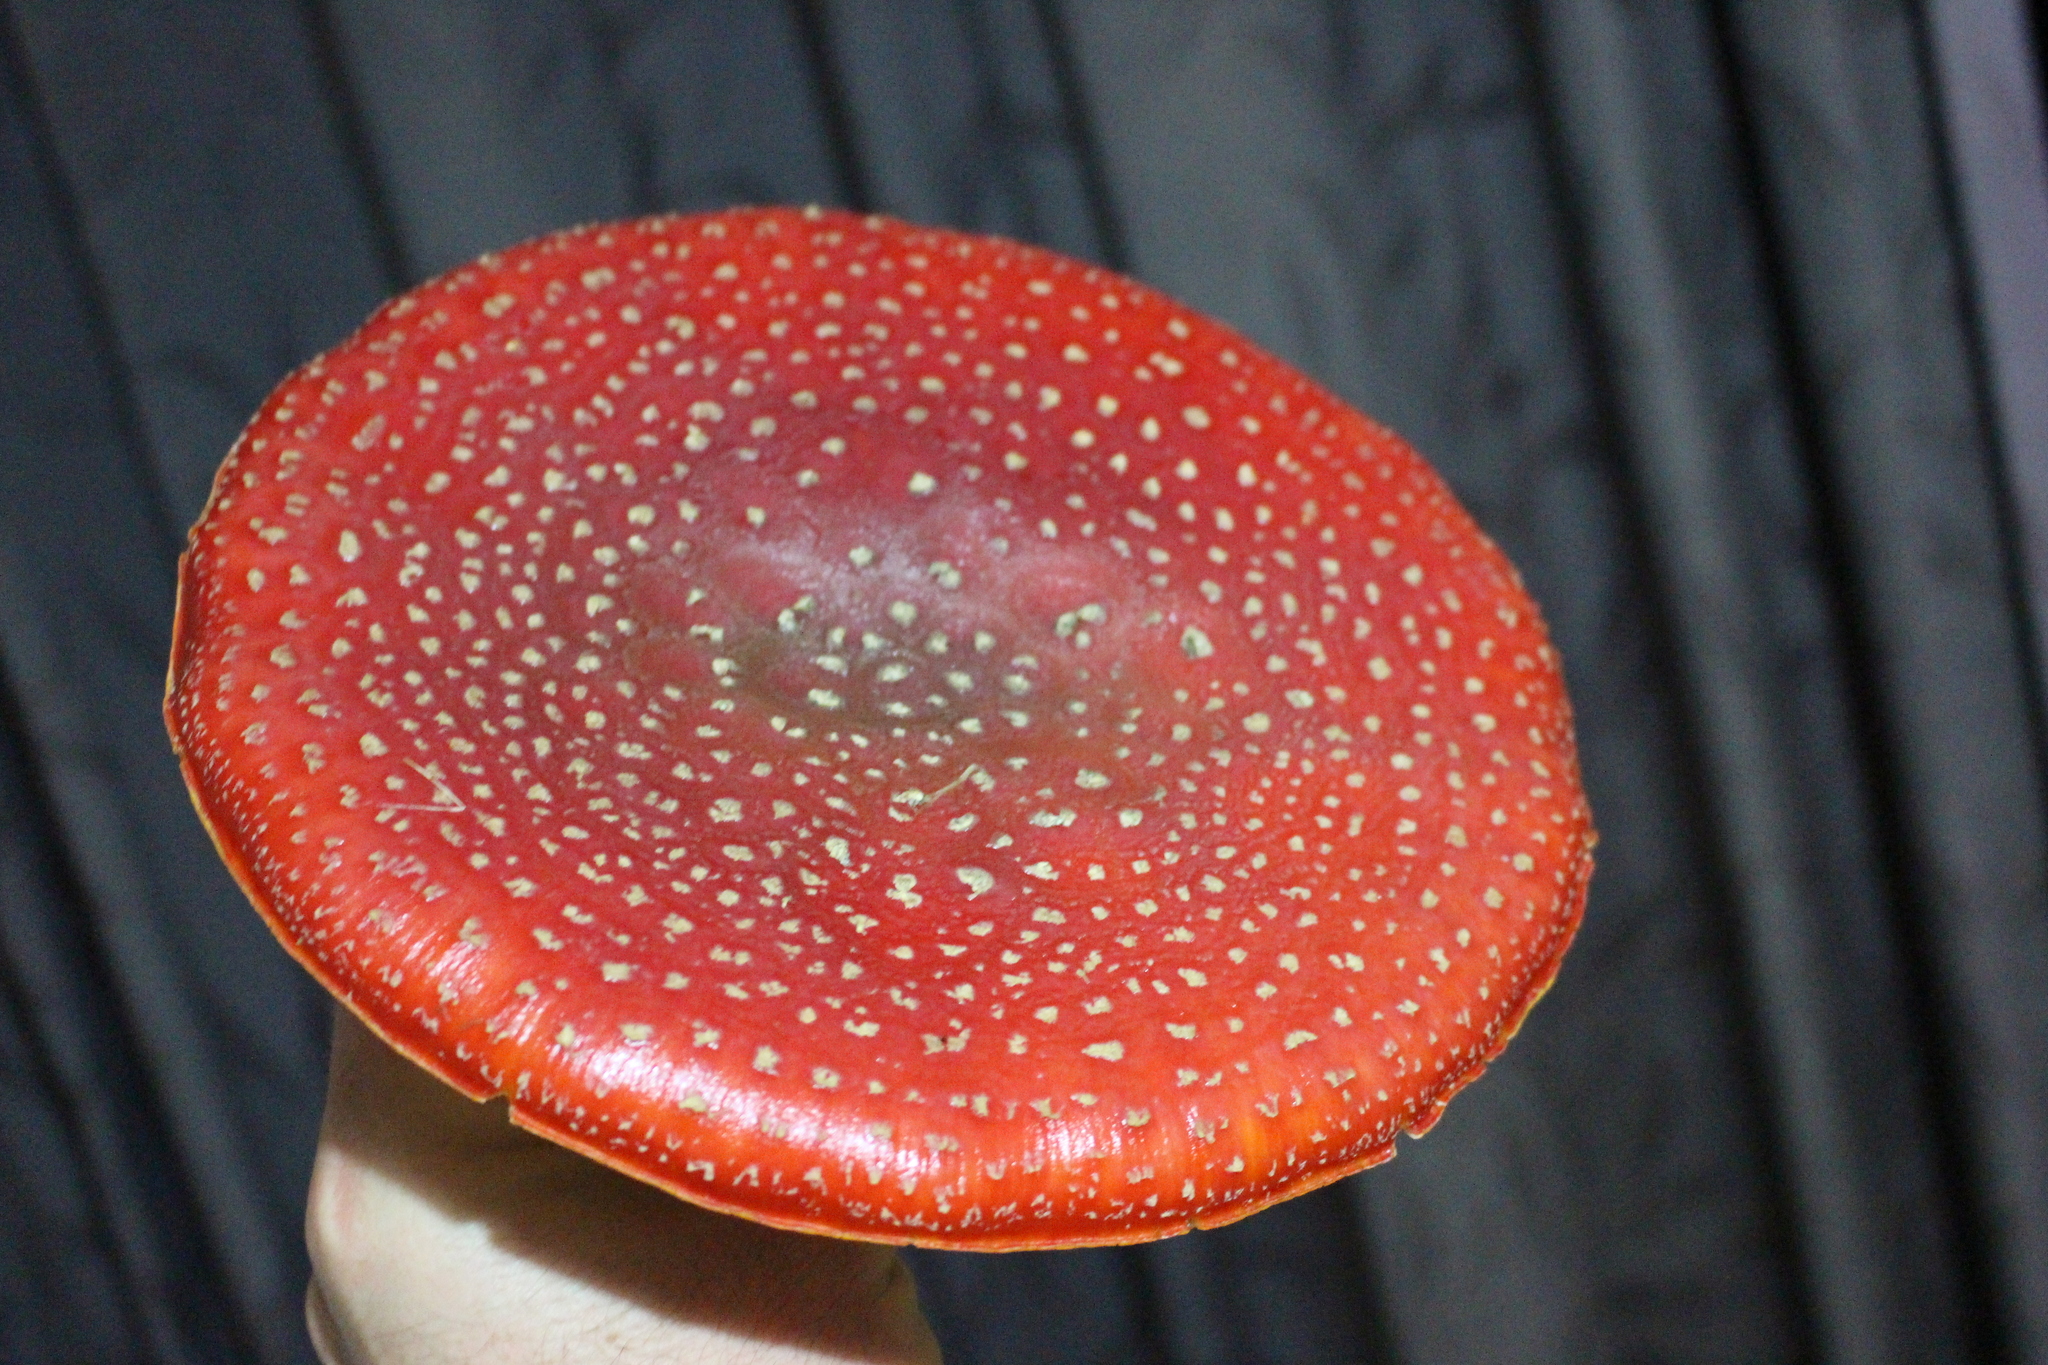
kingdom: Fungi
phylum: Basidiomycota
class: Agaricomycetes
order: Agaricales
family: Amanitaceae
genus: Amanita
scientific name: Amanita muscaria
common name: Fly agaric
